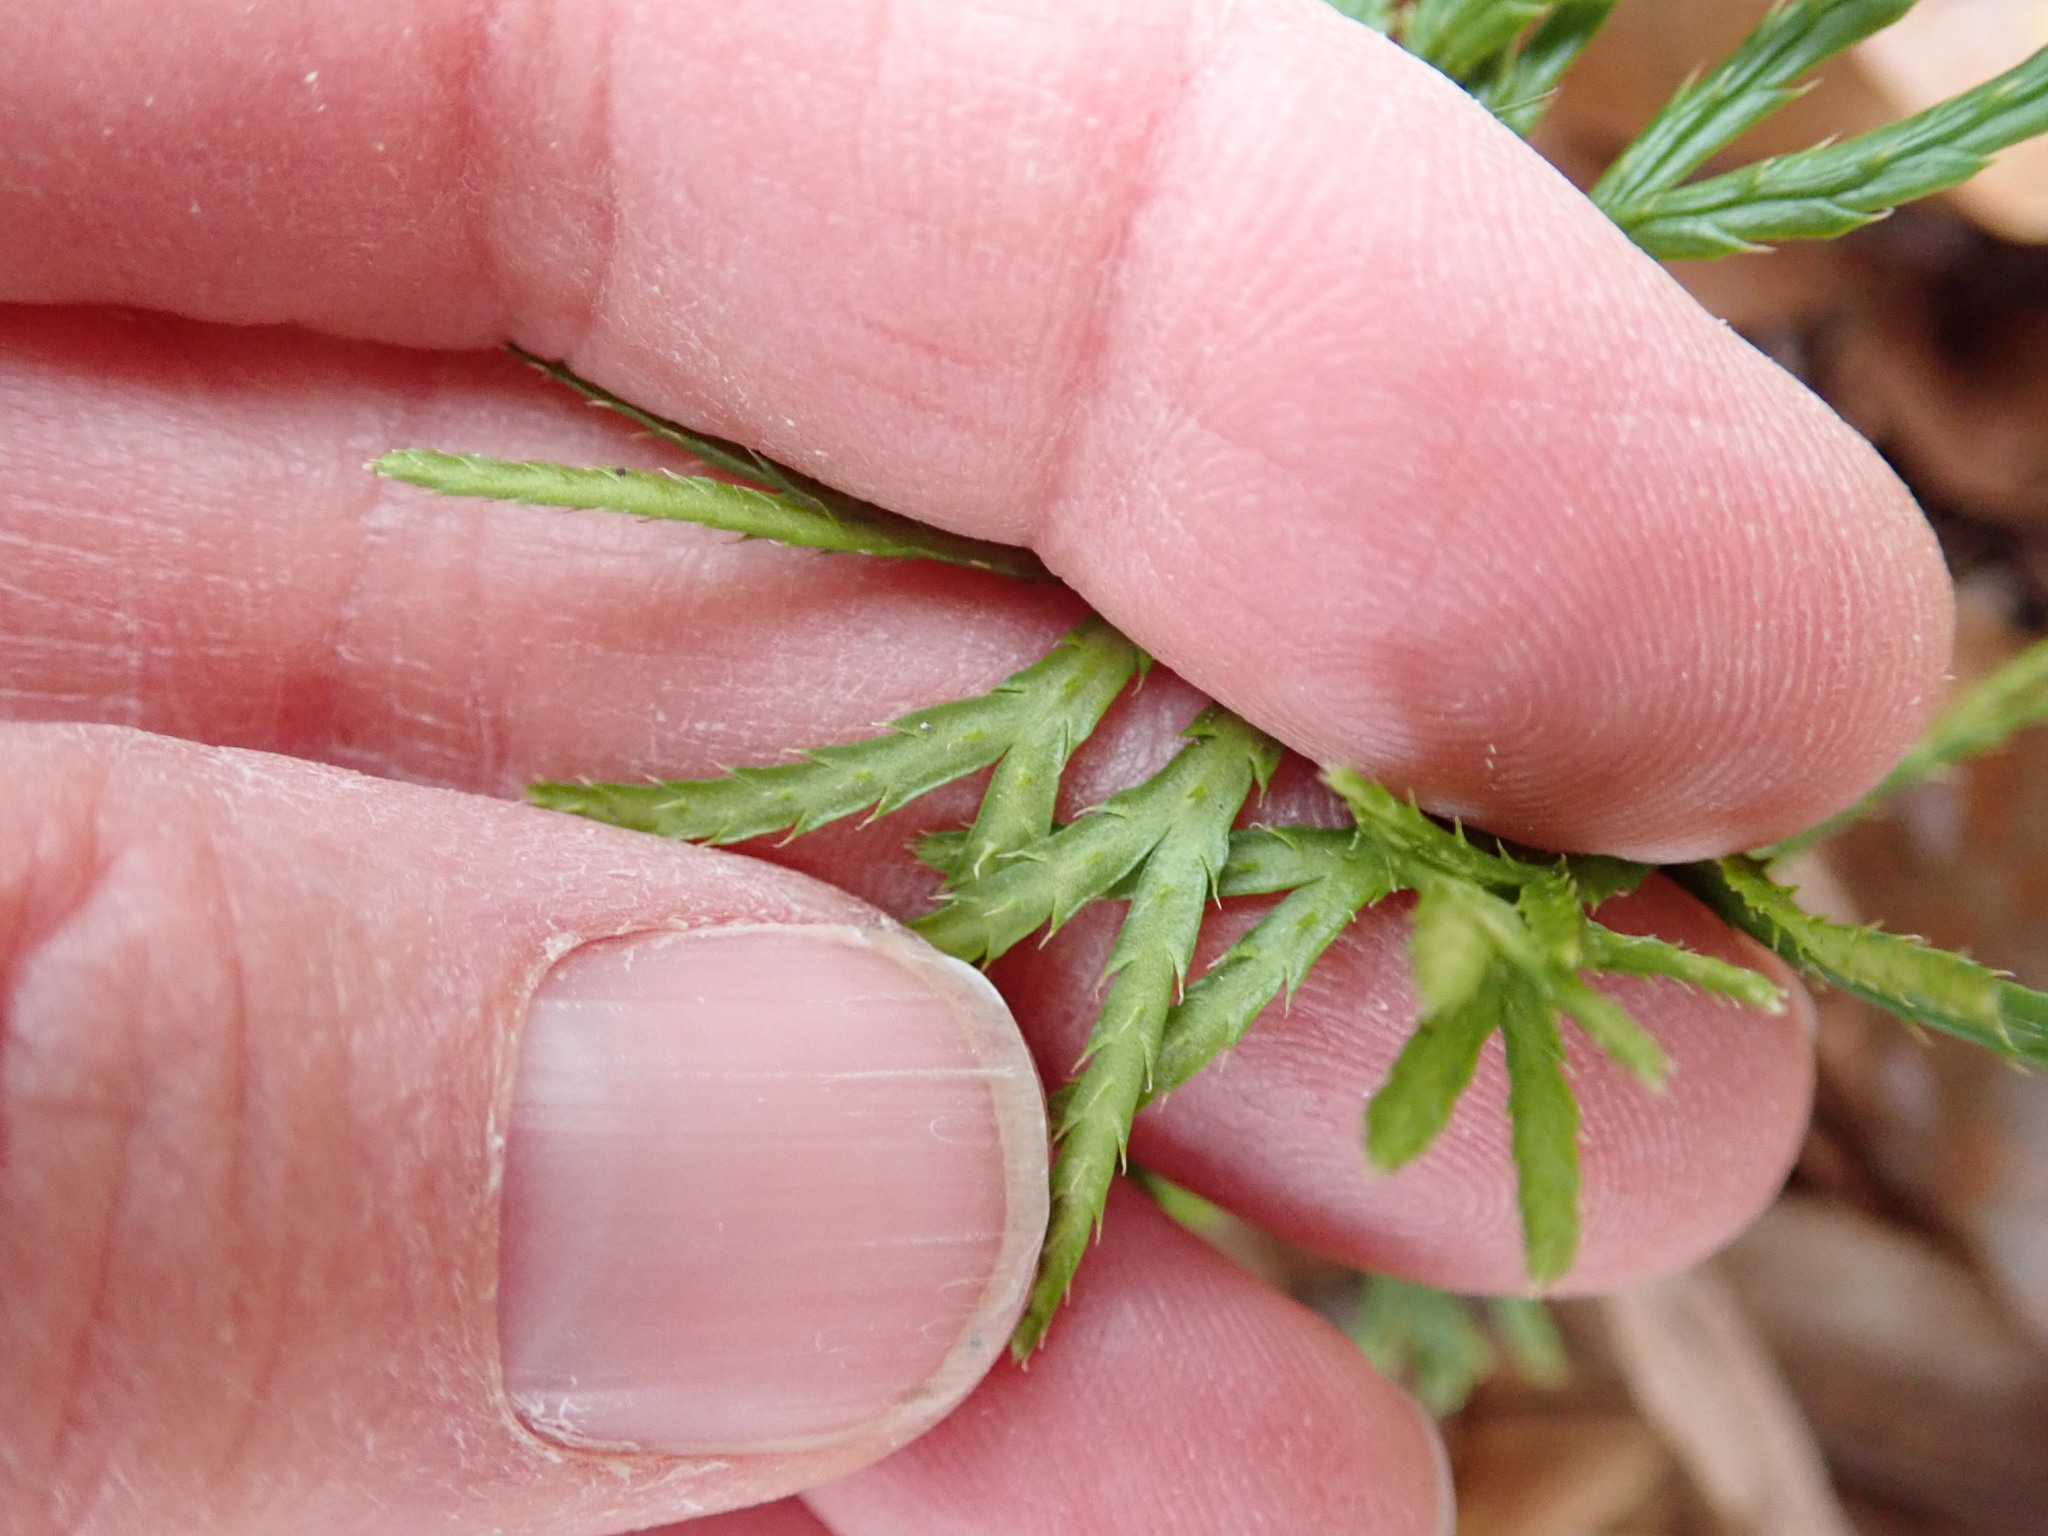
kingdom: Plantae
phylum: Tracheophyta
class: Lycopodiopsida
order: Lycopodiales
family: Lycopodiaceae
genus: Diphasiastrum
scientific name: Diphasiastrum digitatum
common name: Southern running-pine
